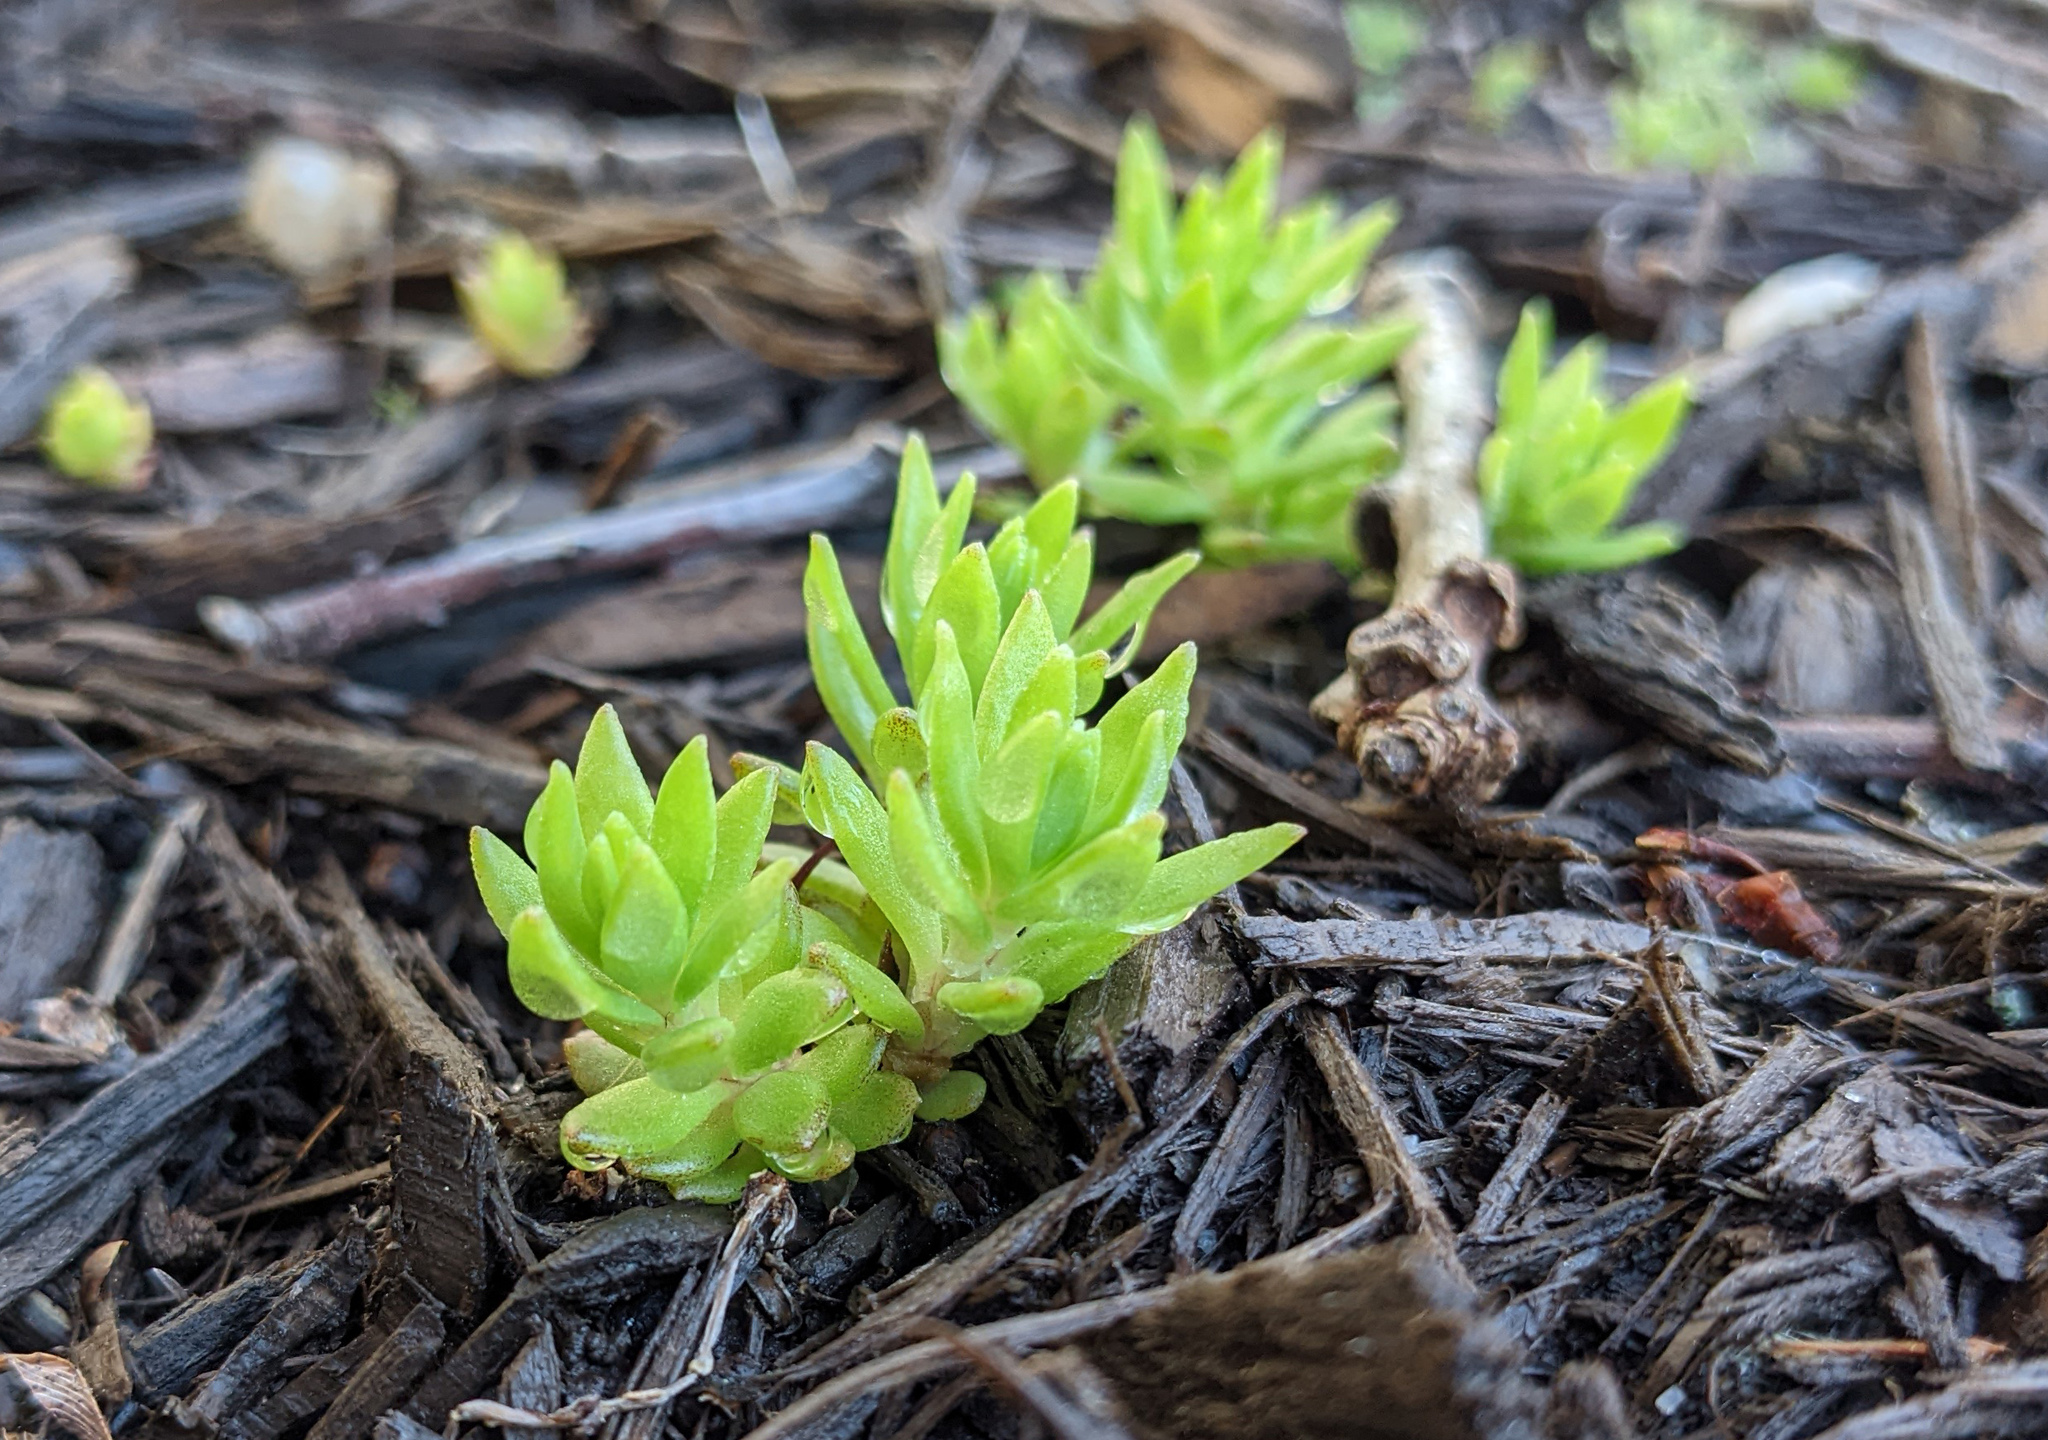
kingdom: Plantae
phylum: Tracheophyta
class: Magnoliopsida
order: Saxifragales
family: Crassulaceae
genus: Sedum
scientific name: Sedum sarmentosum
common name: Stringy stonecrop
